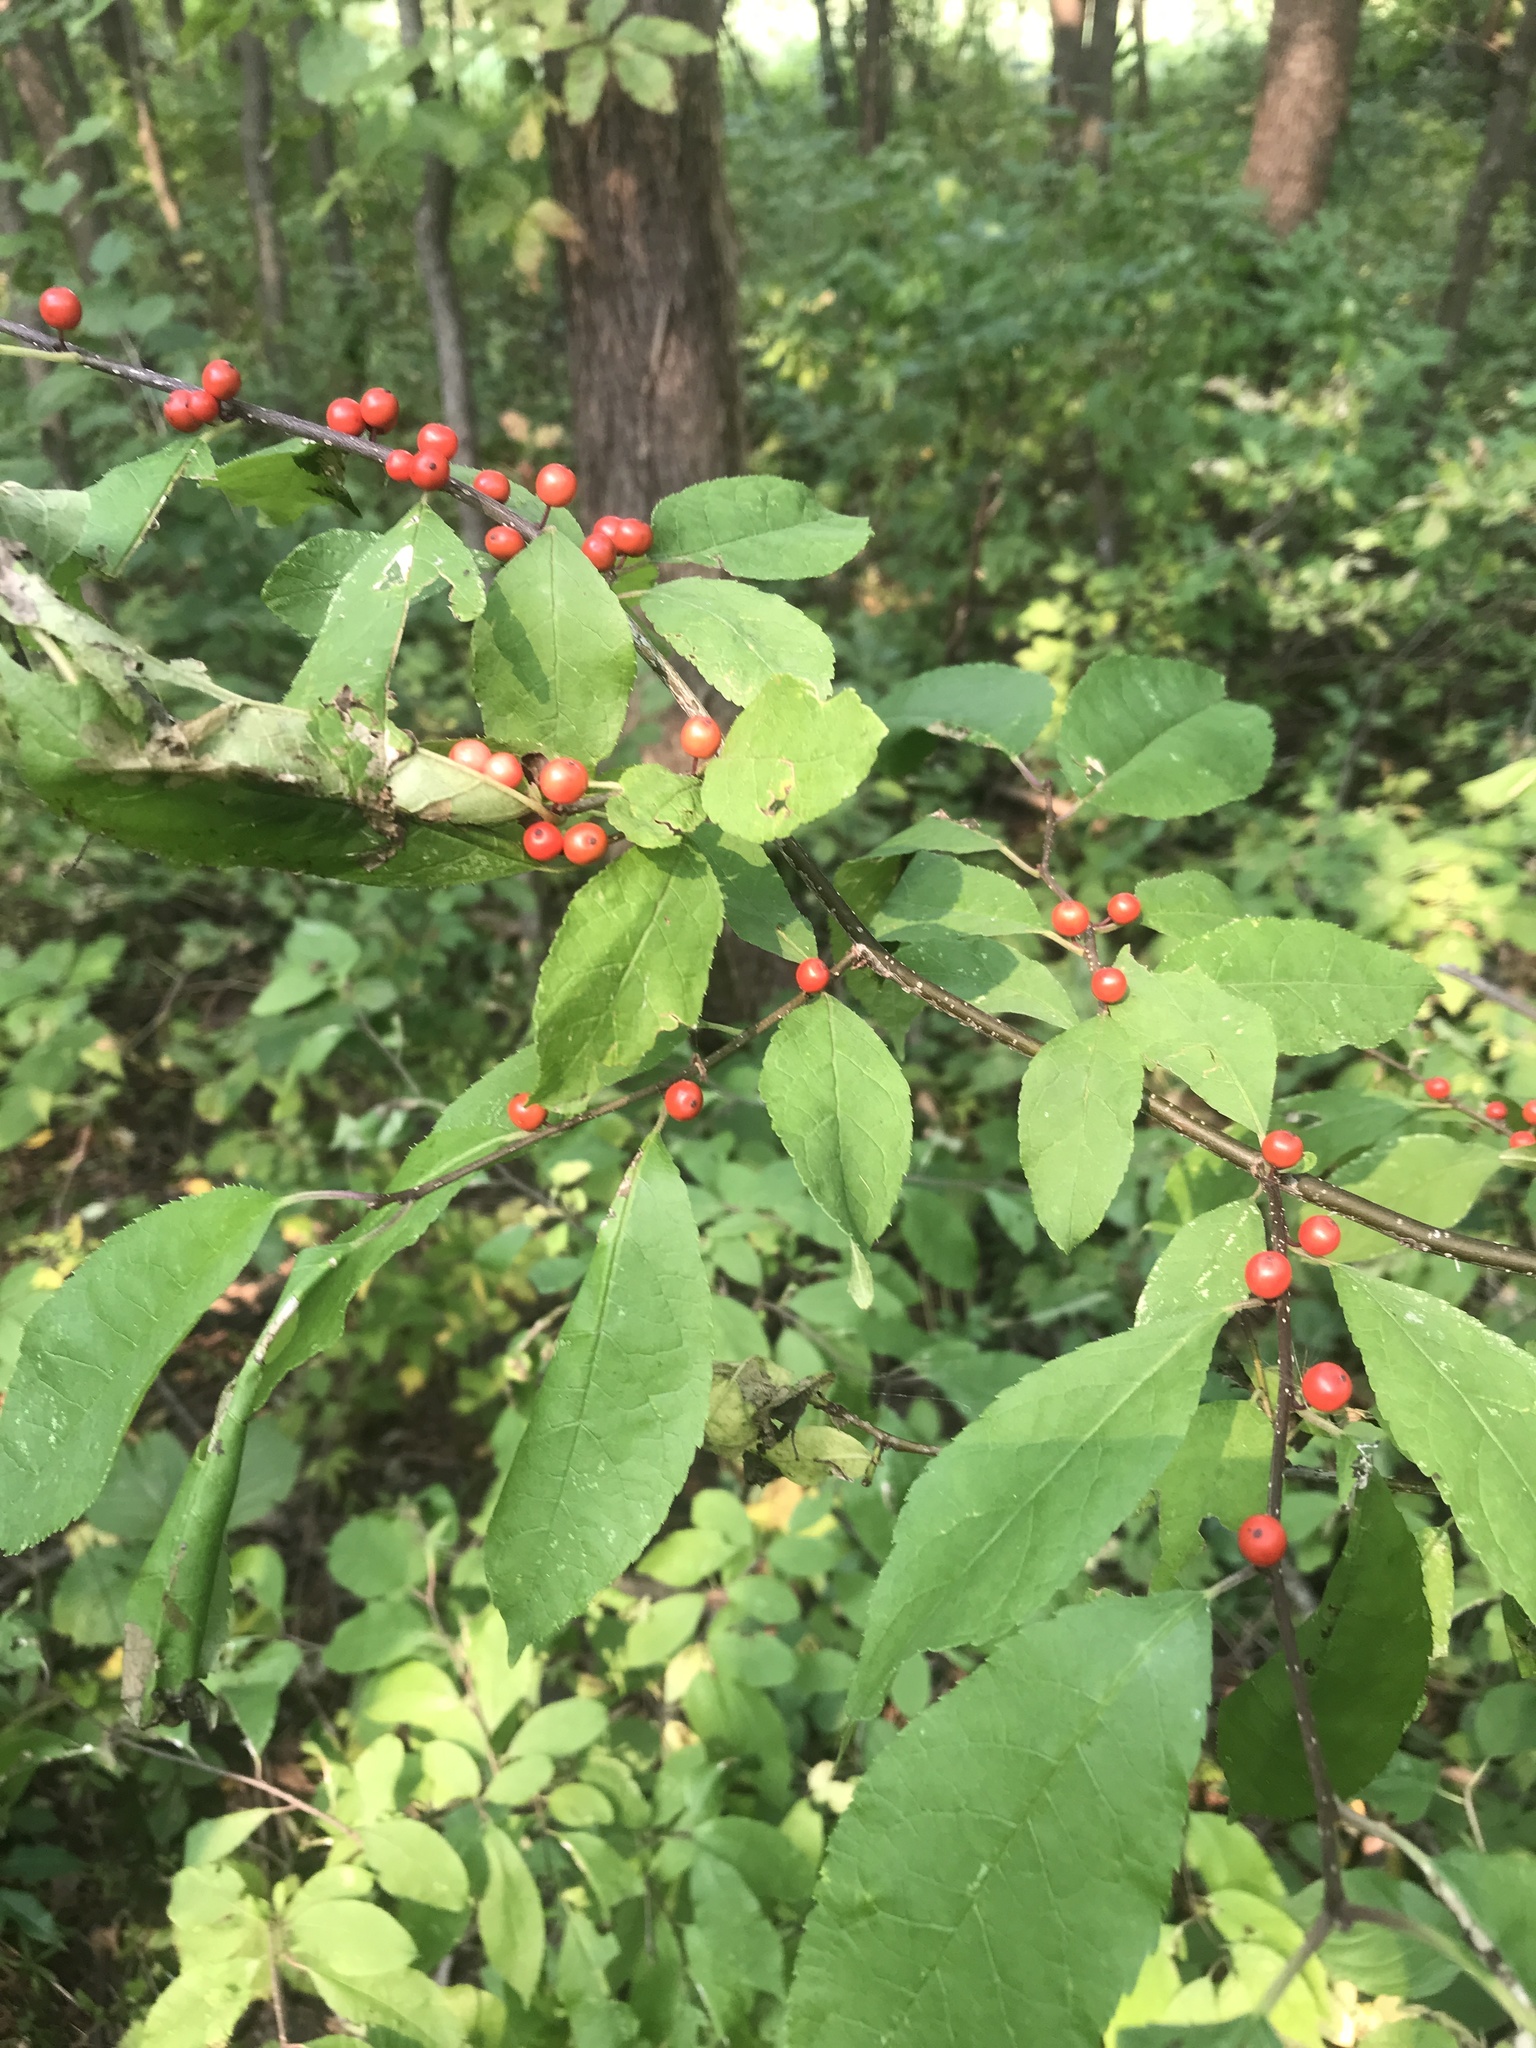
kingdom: Plantae
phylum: Tracheophyta
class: Magnoliopsida
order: Aquifoliales
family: Aquifoliaceae
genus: Ilex
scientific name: Ilex verticillata
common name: Virginia winterberry
